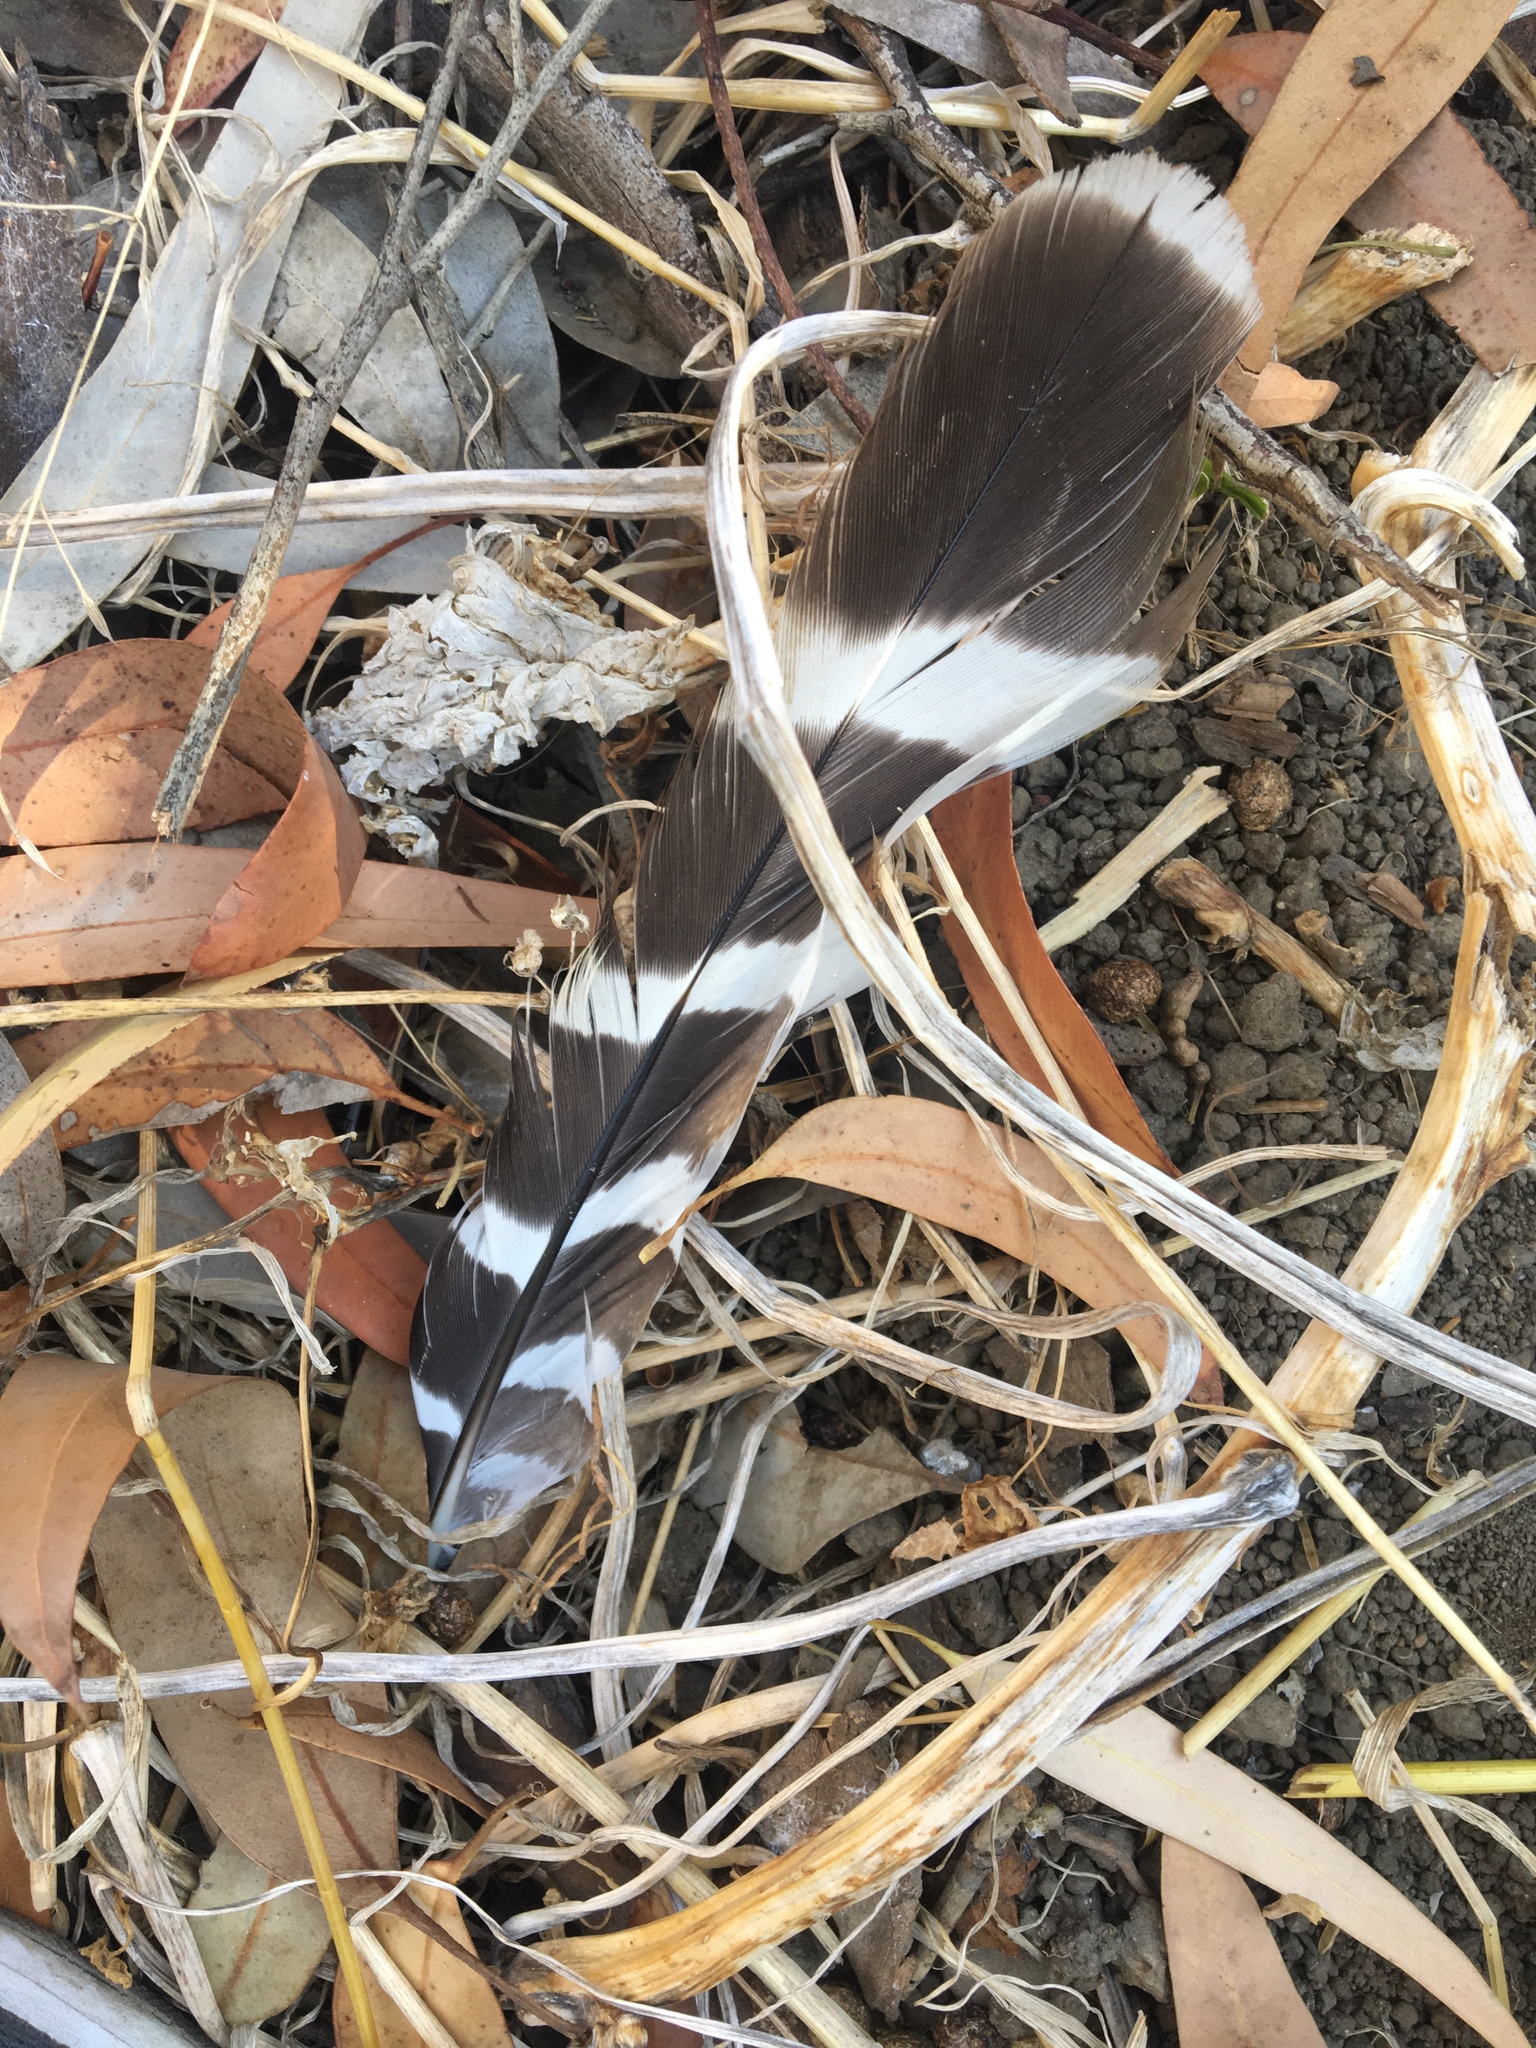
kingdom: Animalia
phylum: Chordata
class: Aves
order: Accipitriformes
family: Accipitridae
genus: Buteo
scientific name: Buteo lineatus
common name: Red-shouldered hawk
